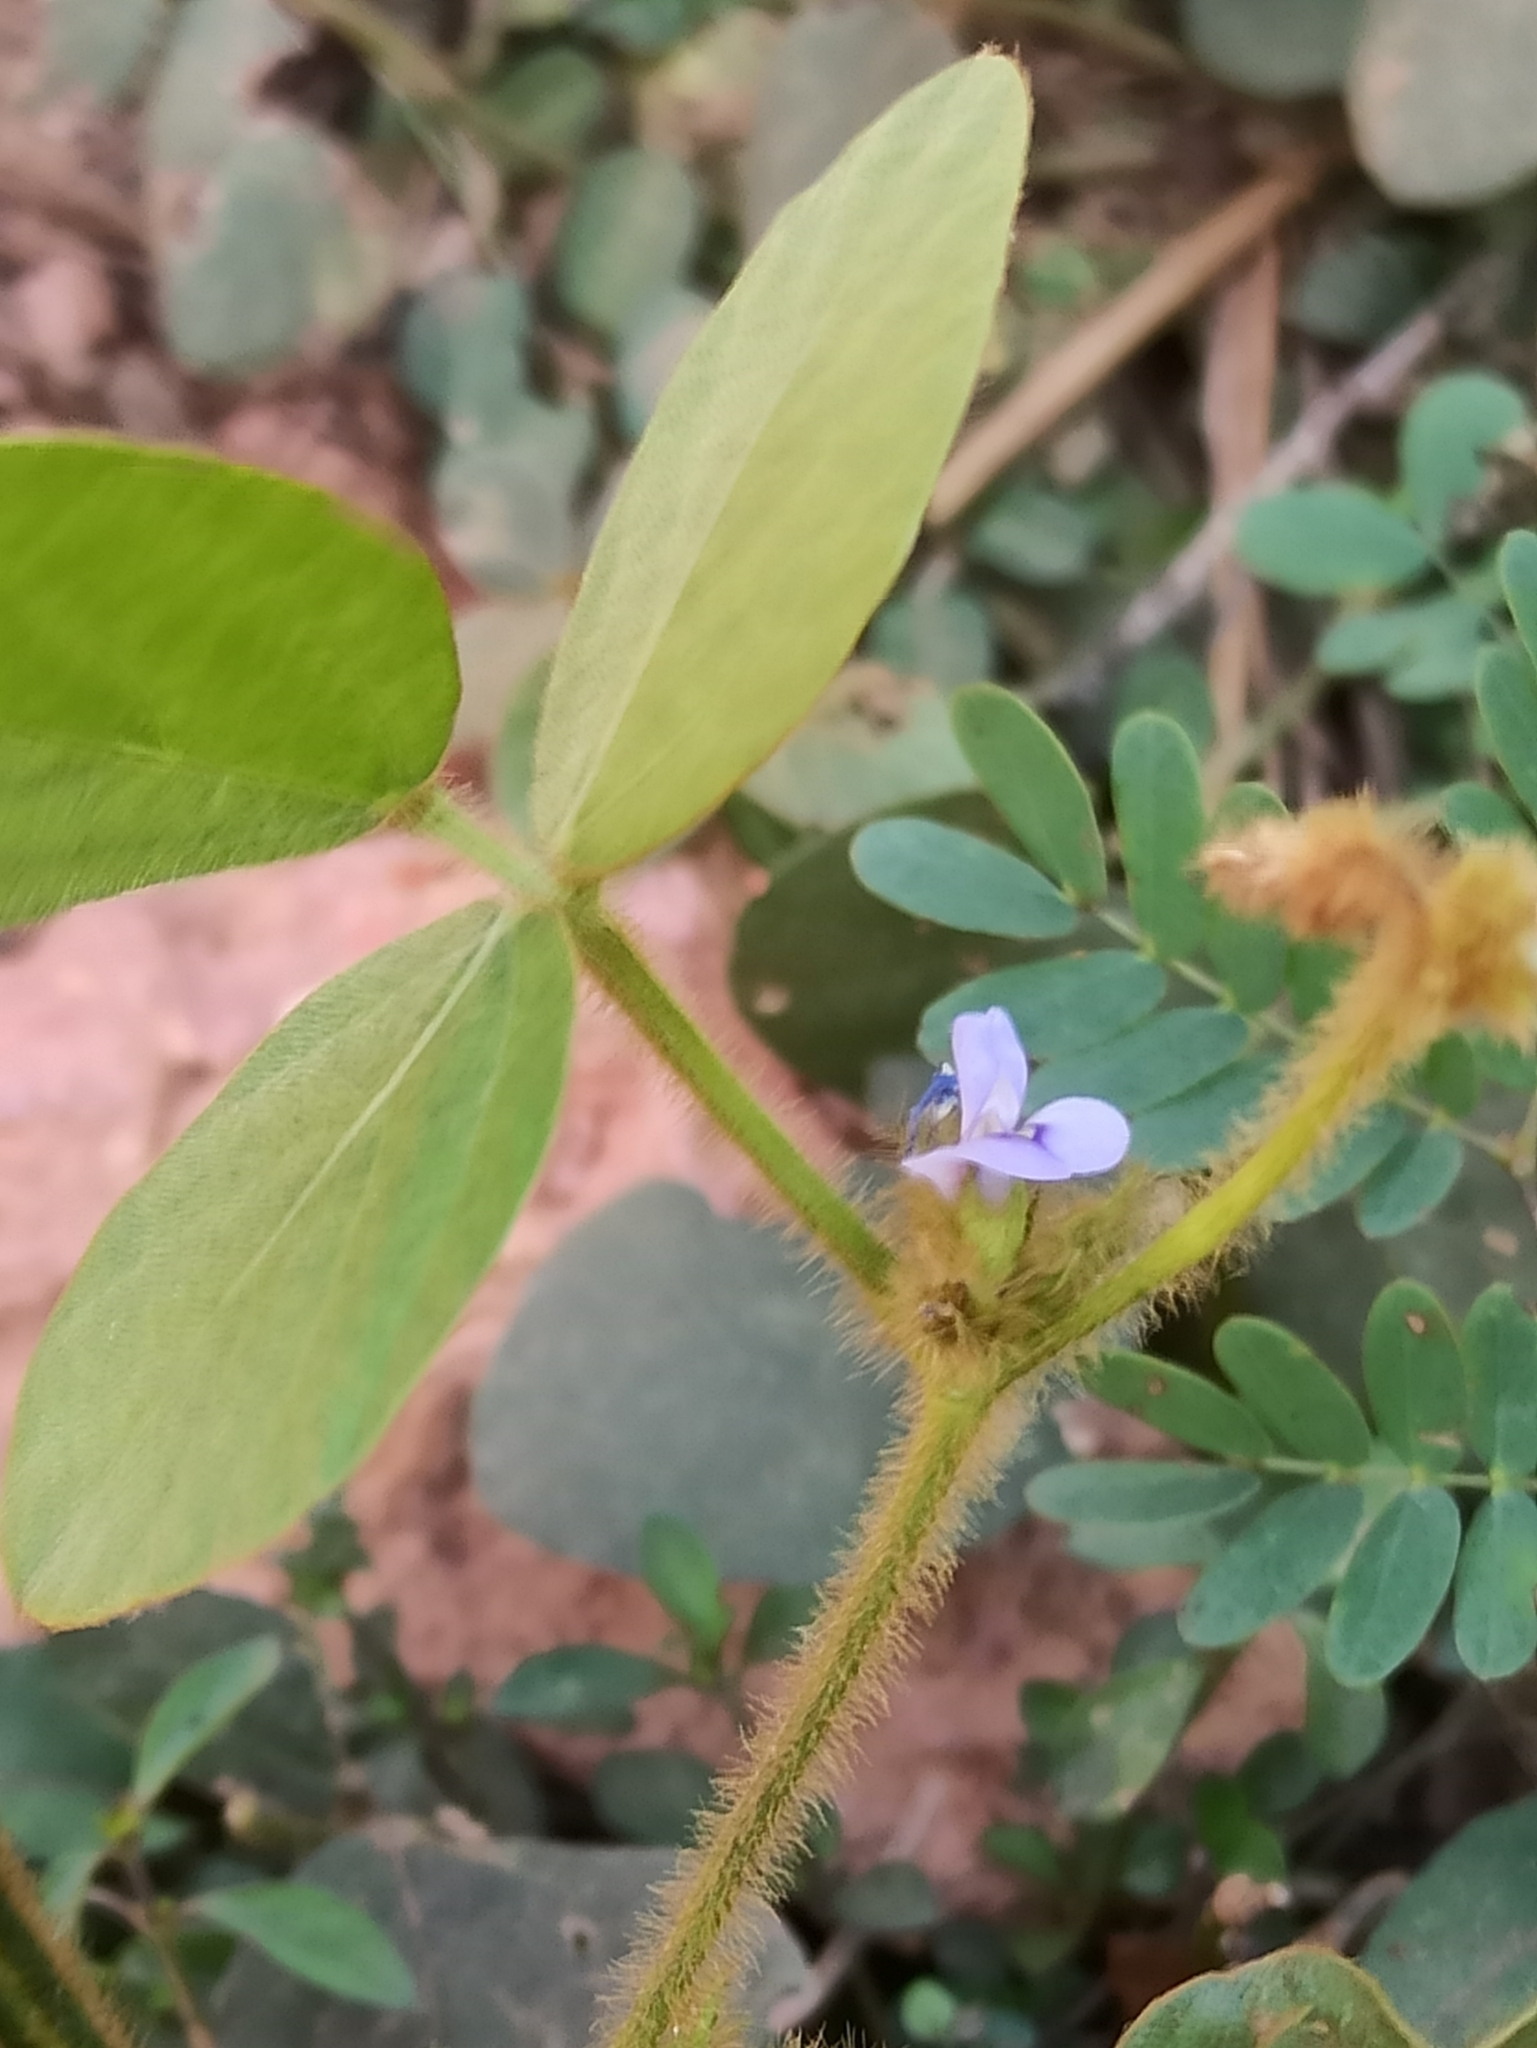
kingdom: Plantae
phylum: Tracheophyta
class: Magnoliopsida
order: Fabales
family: Fabaceae
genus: Calopogonium
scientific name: Calopogonium mucunoides
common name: Calopo
